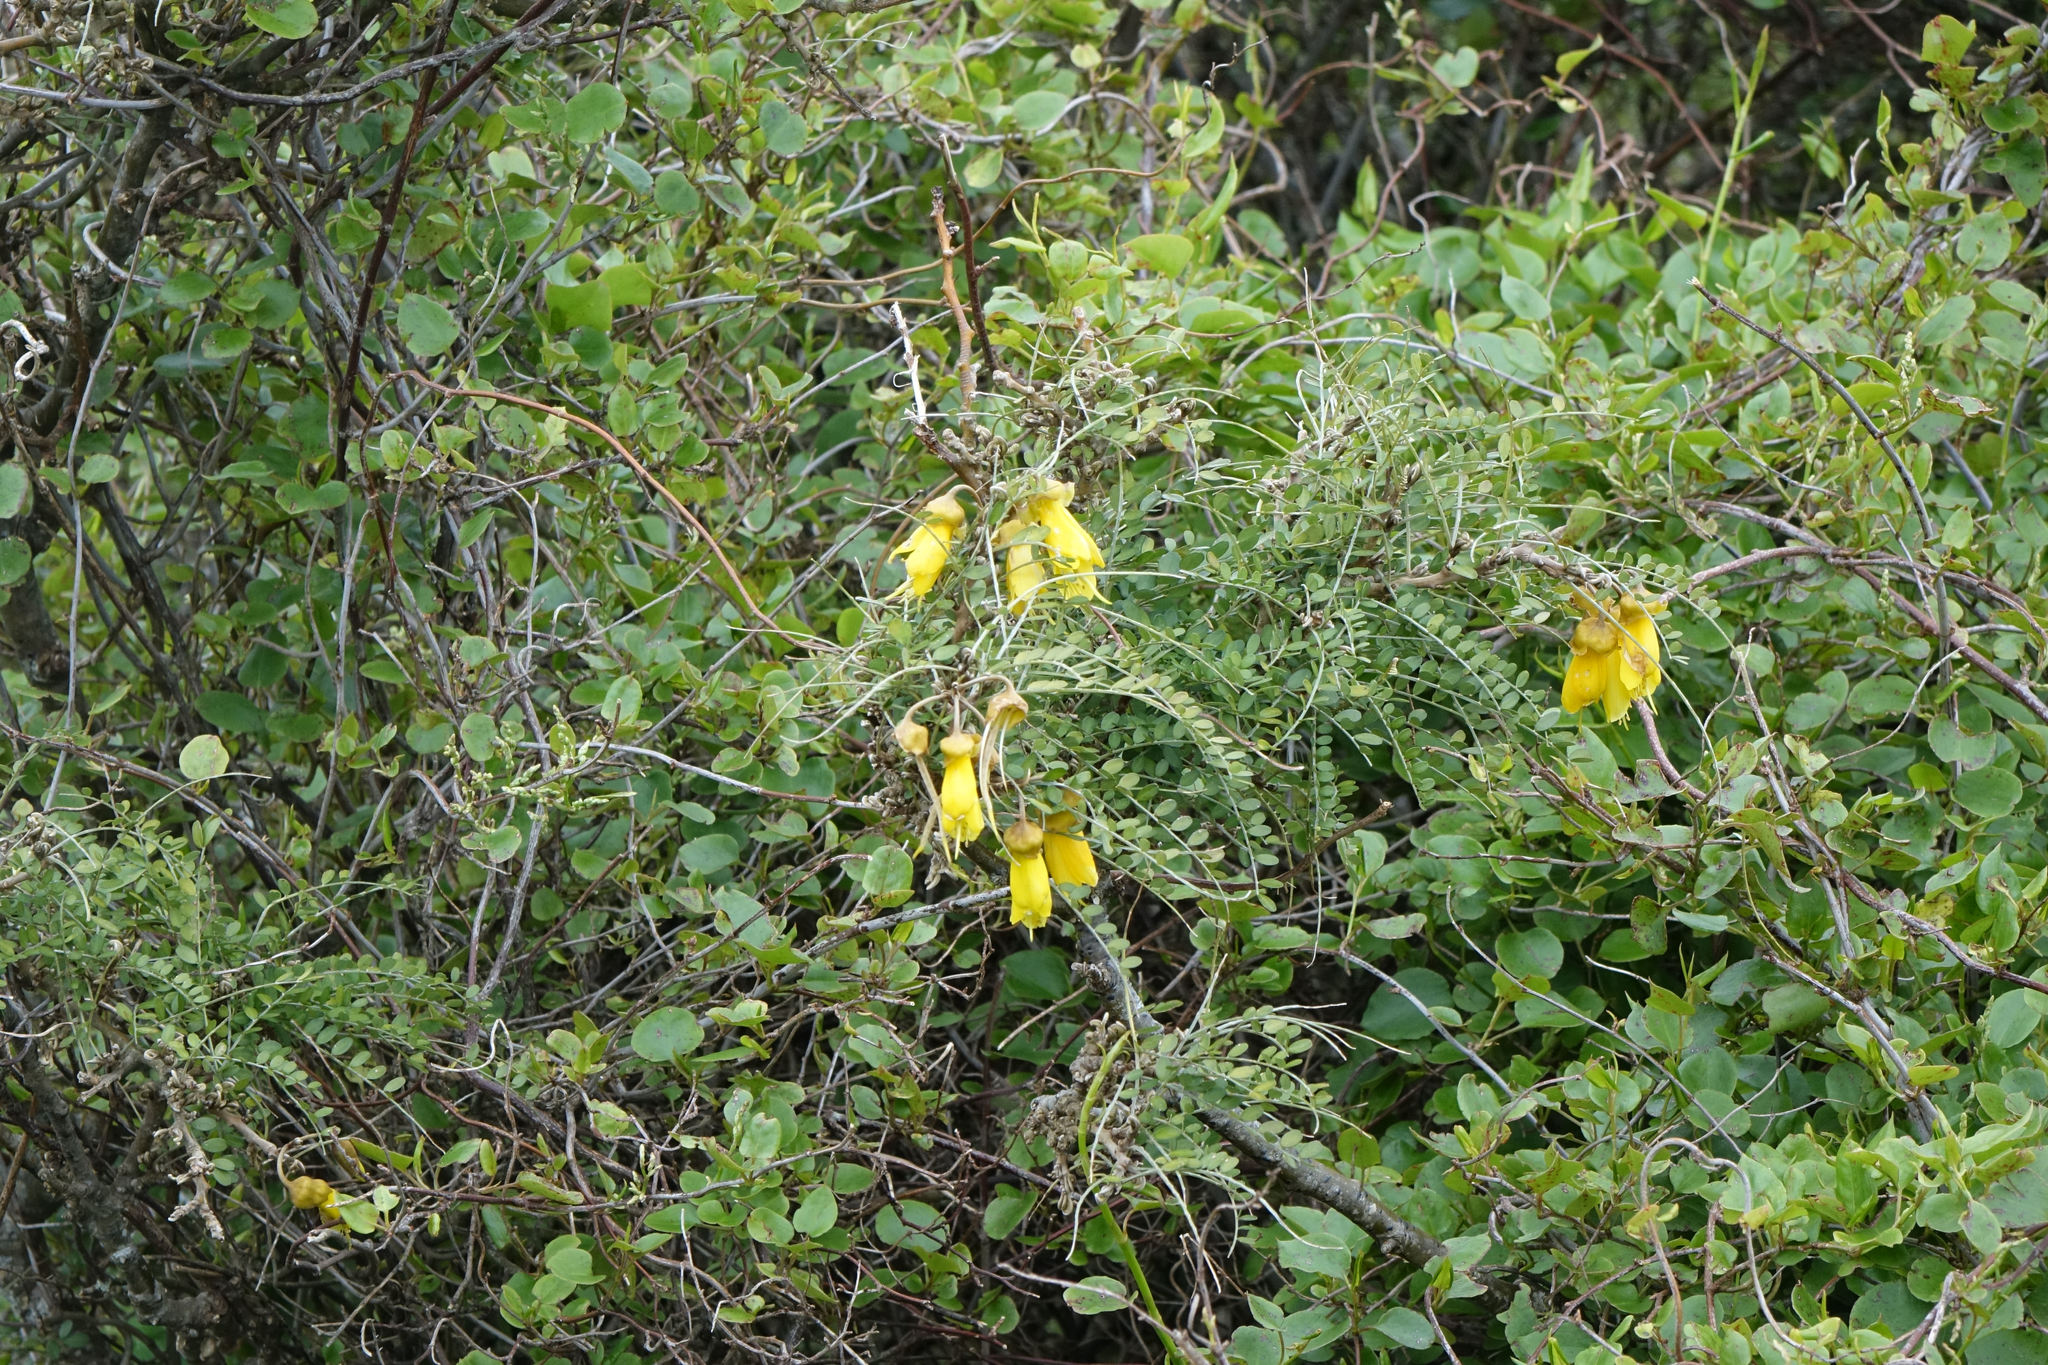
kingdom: Plantae
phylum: Tracheophyta
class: Magnoliopsida
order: Fabales
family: Fabaceae
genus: Sophora
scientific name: Sophora microphylla
